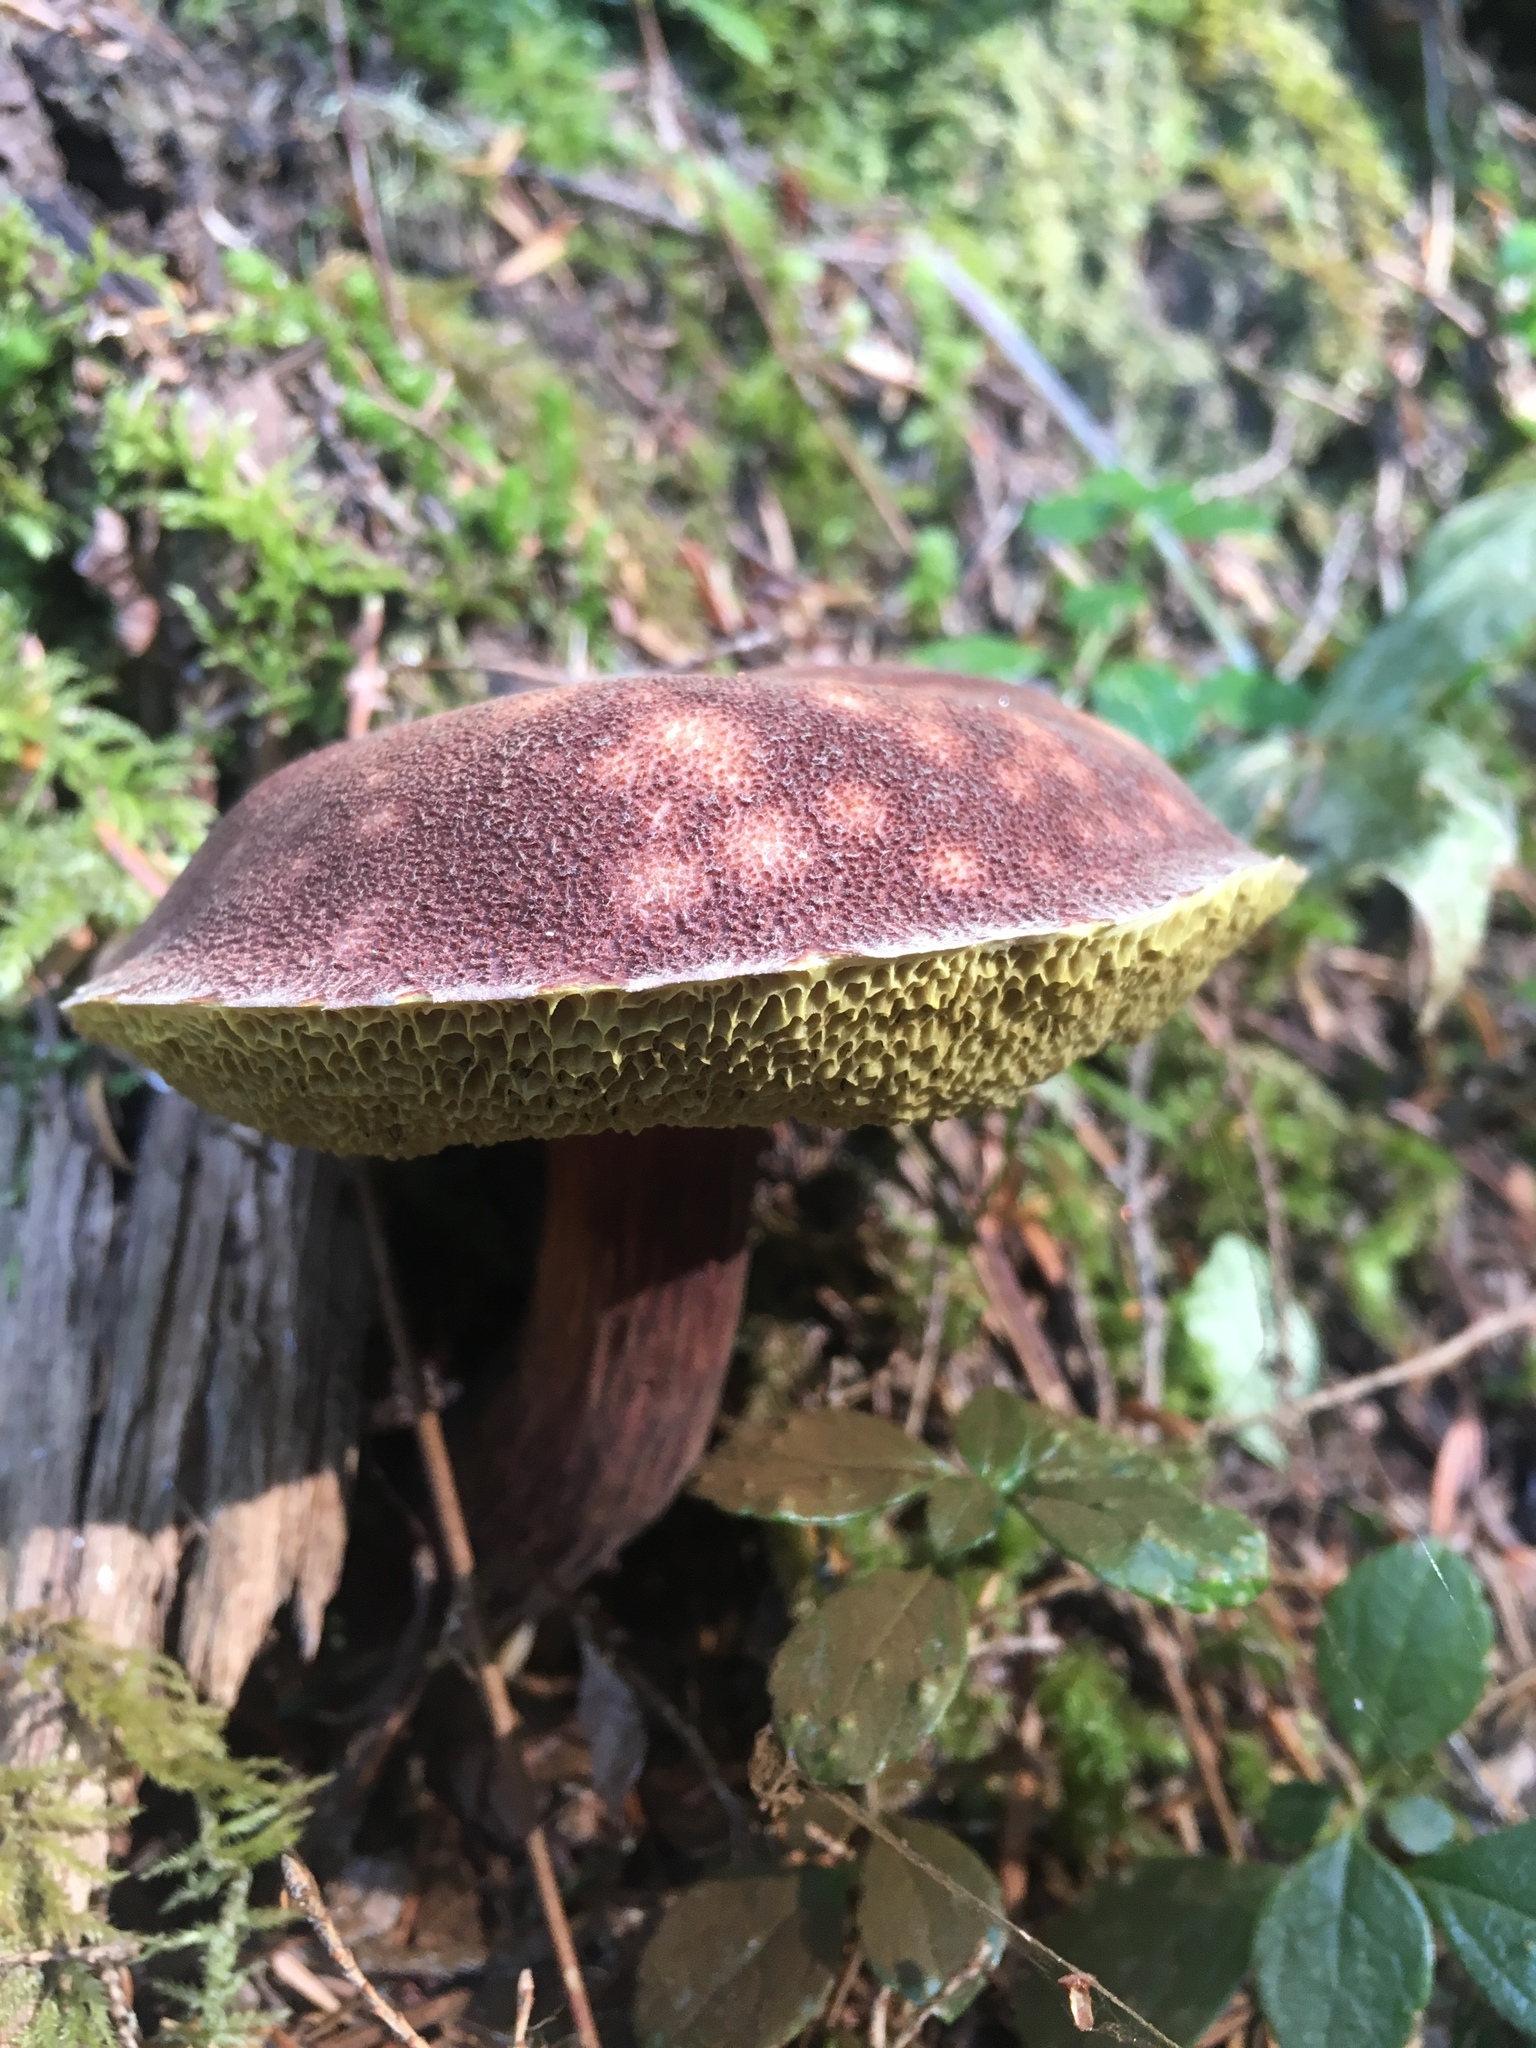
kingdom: Fungi
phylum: Basidiomycota
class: Agaricomycetes
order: Boletales
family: Boletaceae
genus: Aureoboletus
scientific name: Aureoboletus mirabilis
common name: Admirable bolete
